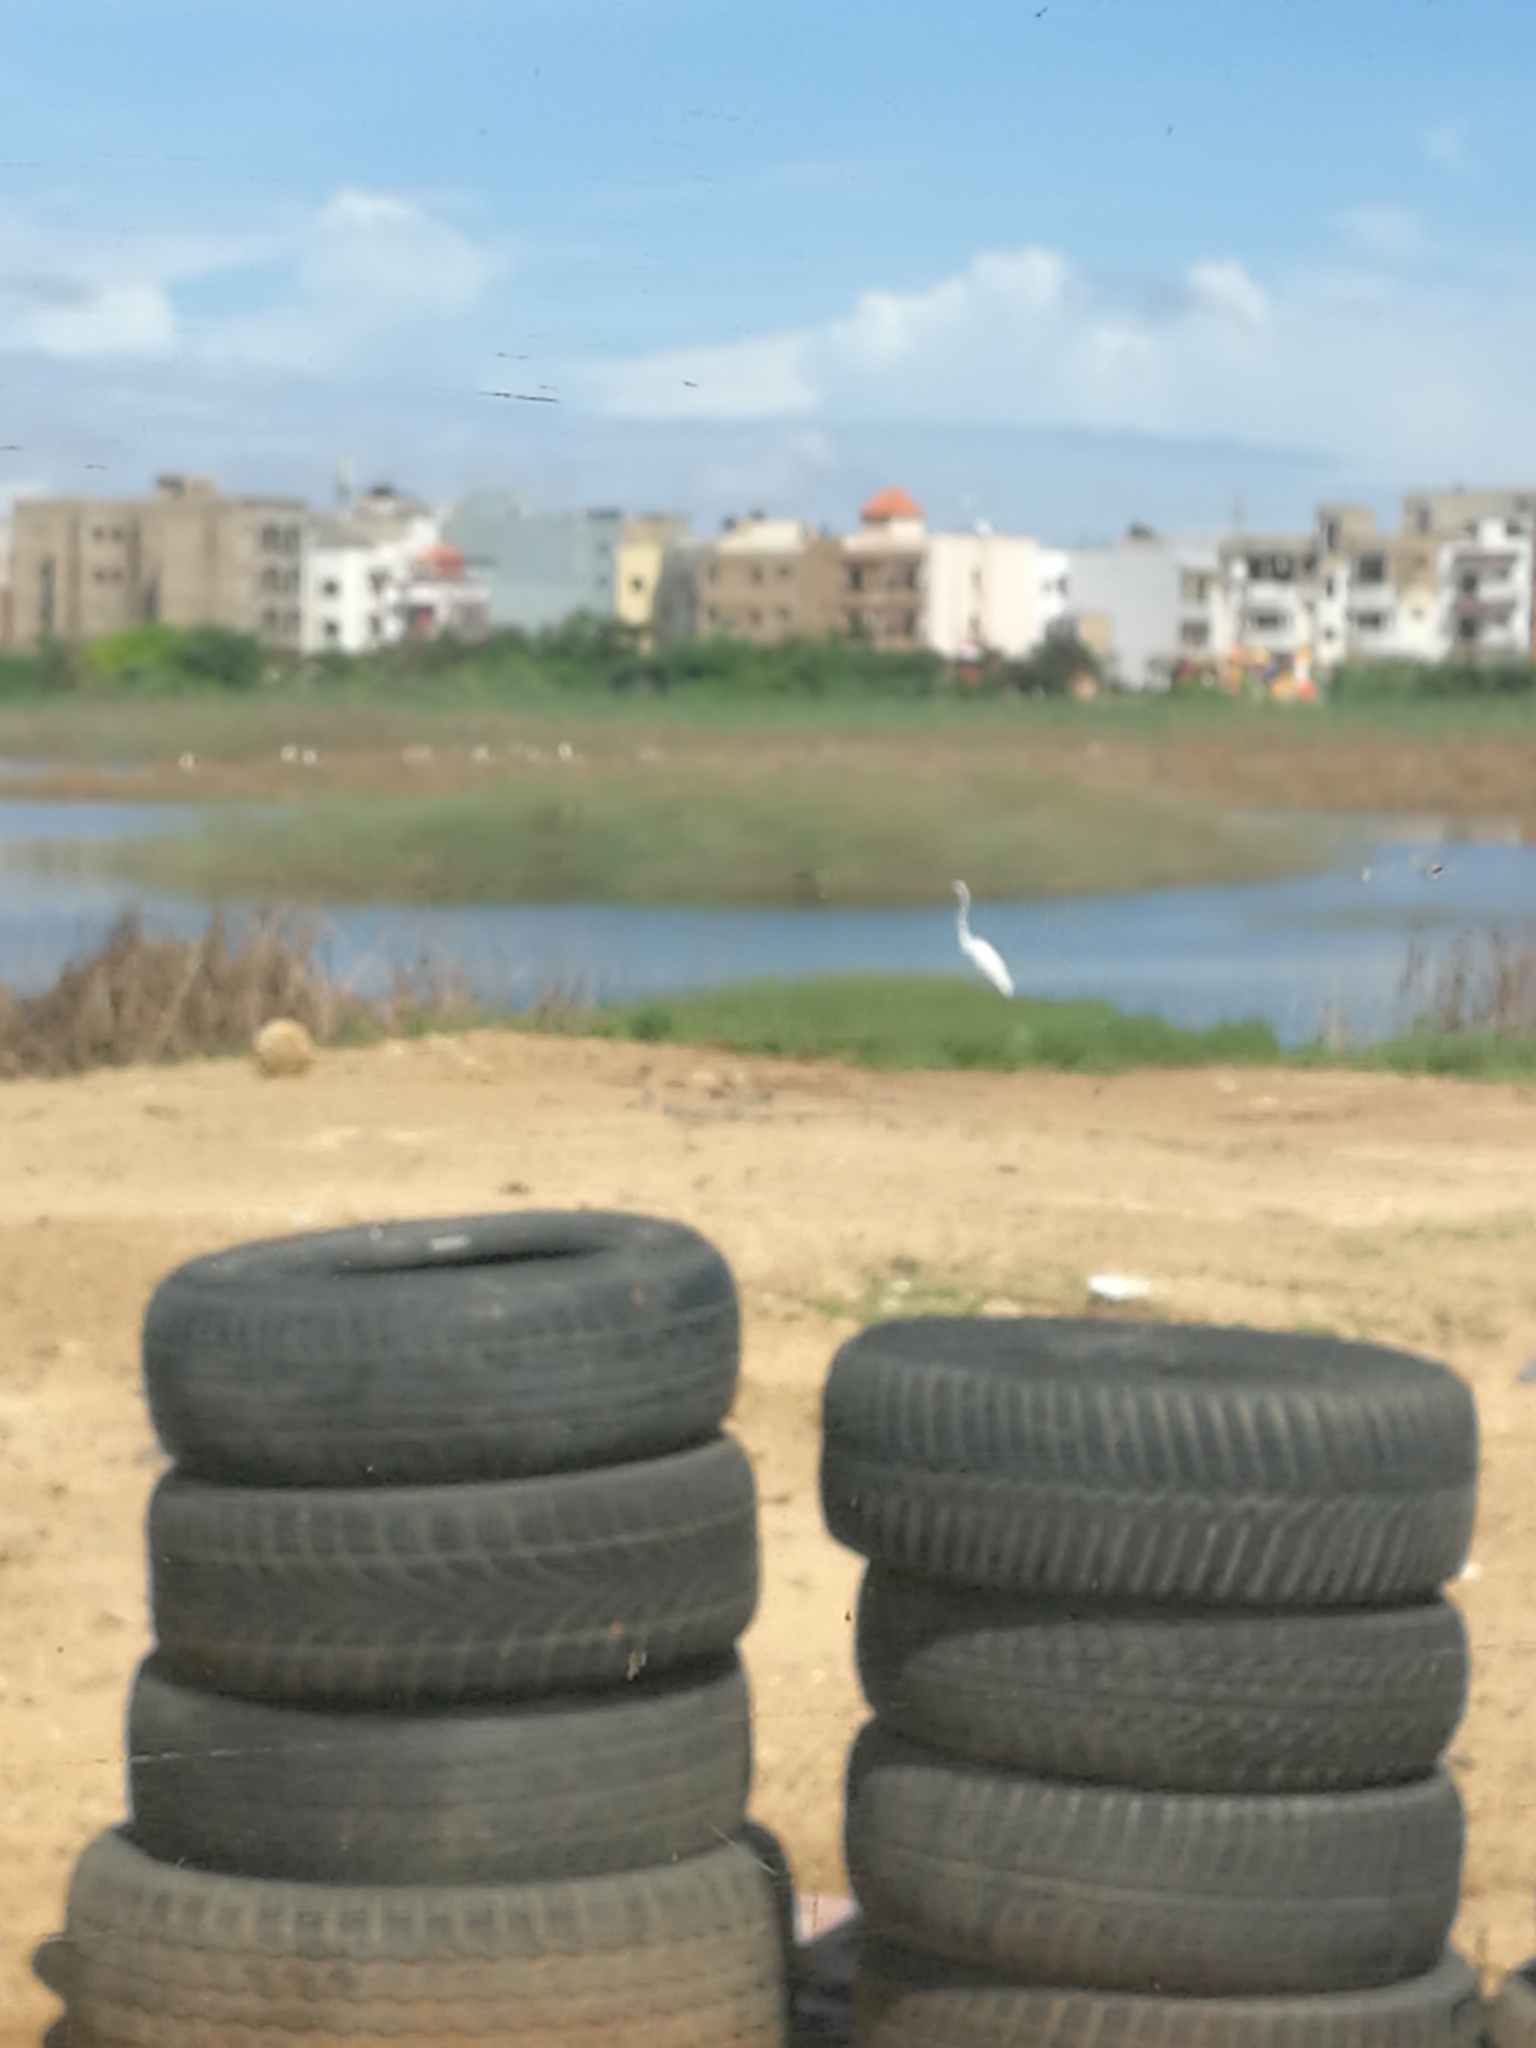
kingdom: Animalia
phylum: Chordata
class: Aves
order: Pelecaniformes
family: Ardeidae
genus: Ardea
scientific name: Ardea alba
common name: Great egret
